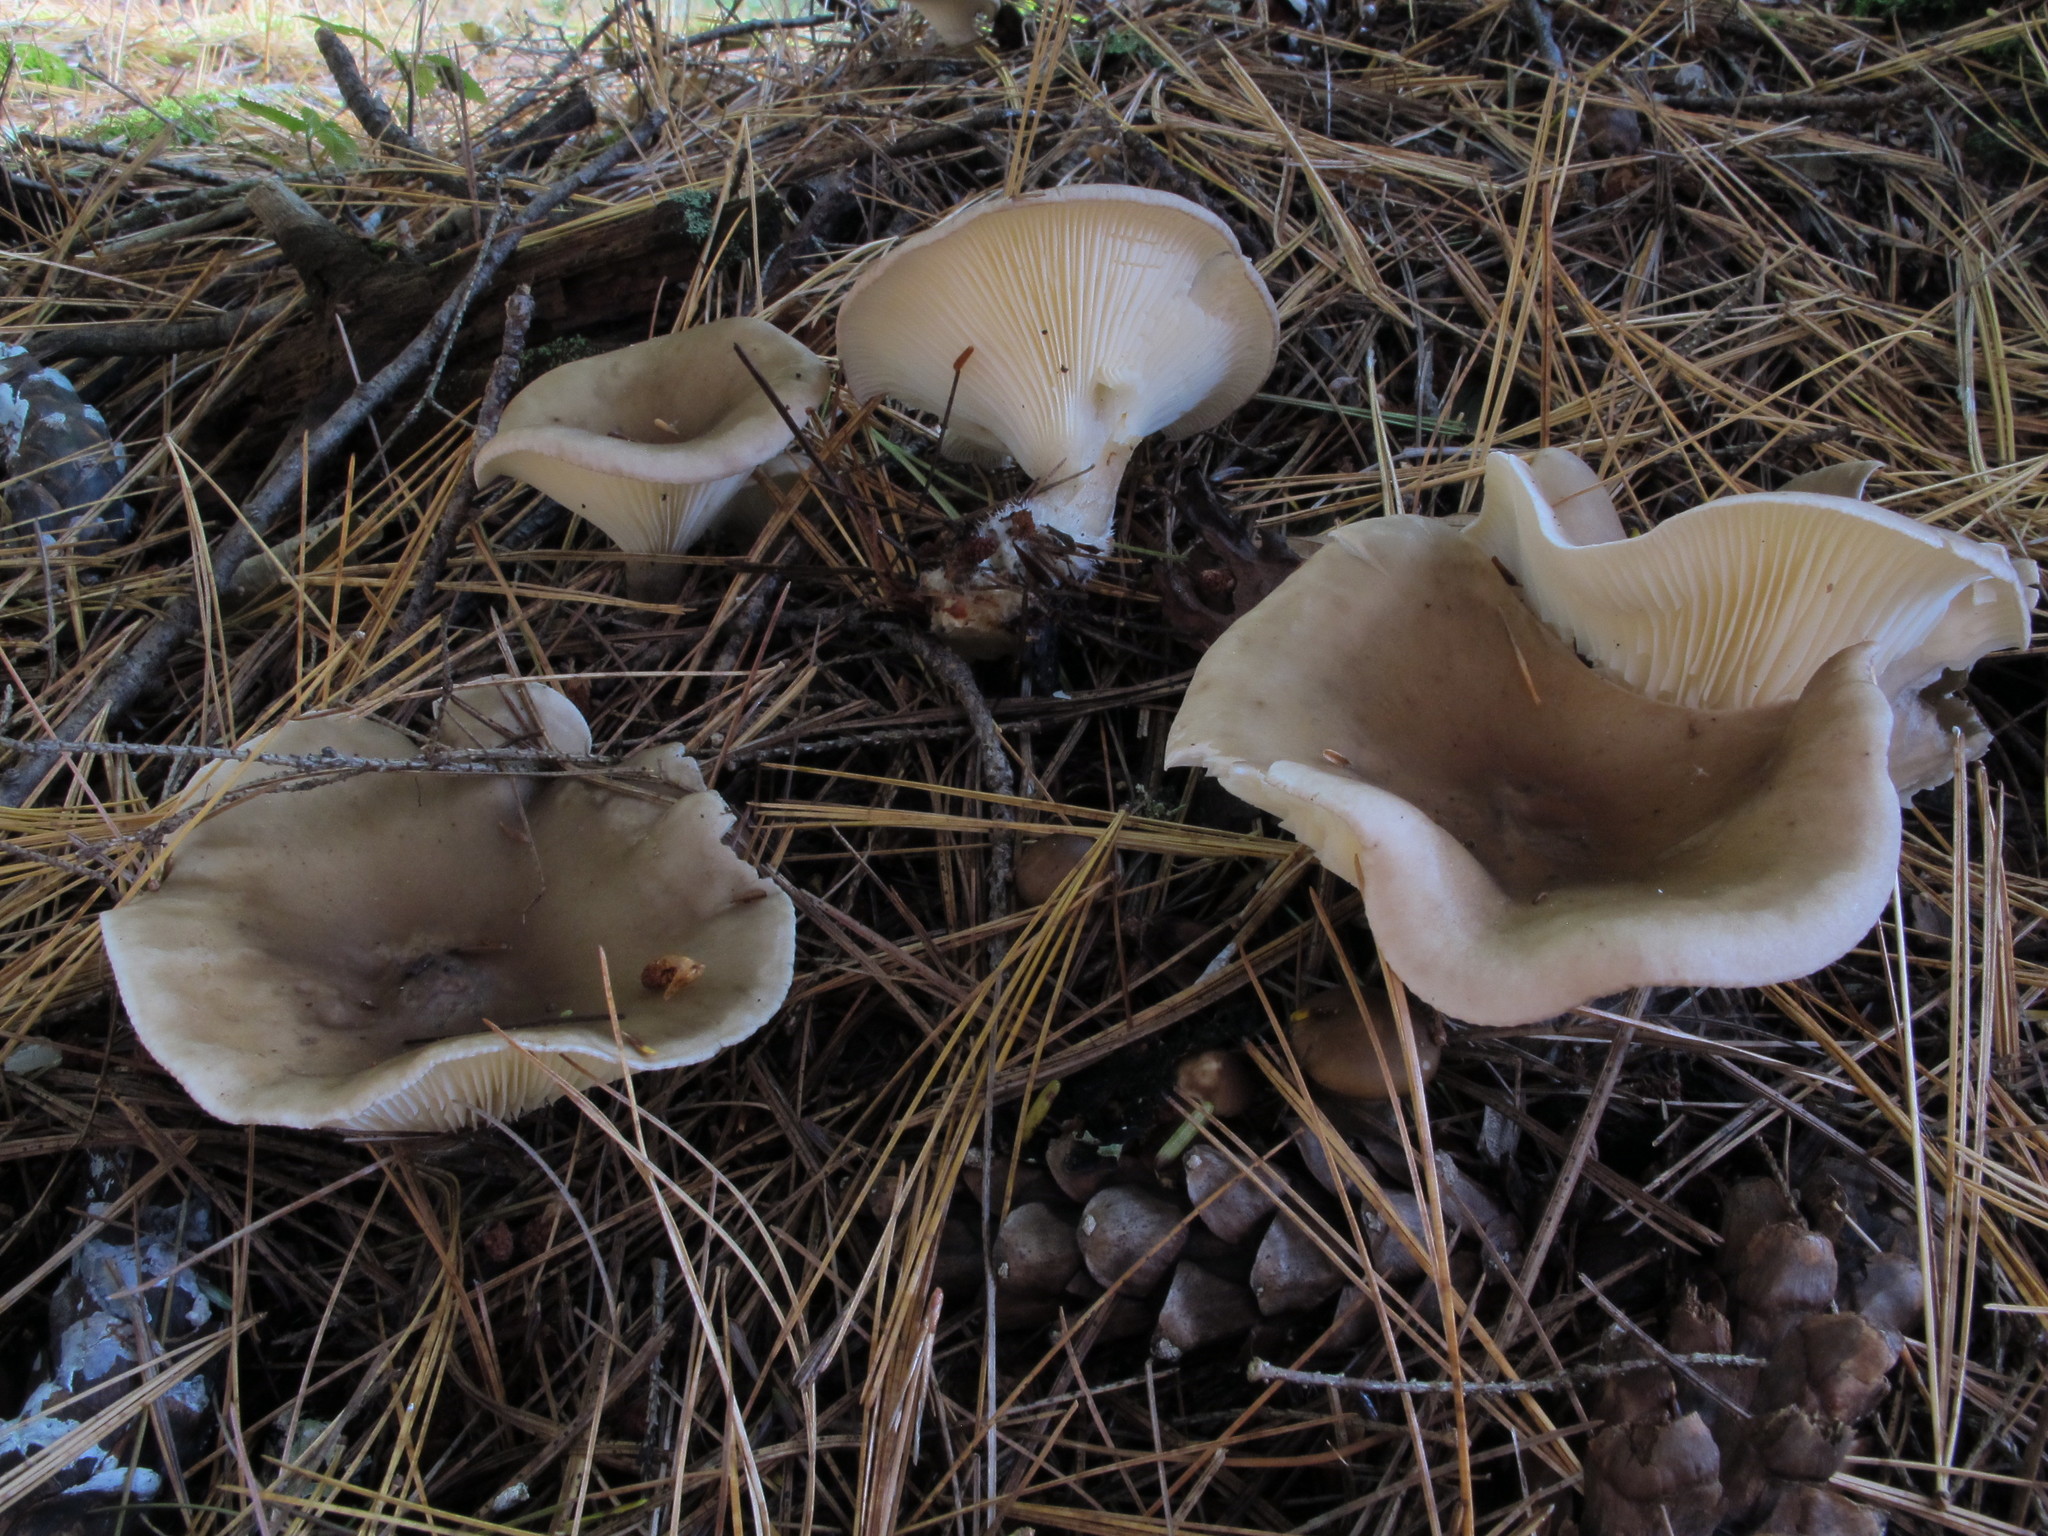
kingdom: Fungi
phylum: Basidiomycota
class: Agaricomycetes
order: Agaricales
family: Hygrophoraceae
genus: Ampulloclitocybe
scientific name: Ampulloclitocybe clavipes
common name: Club foot
